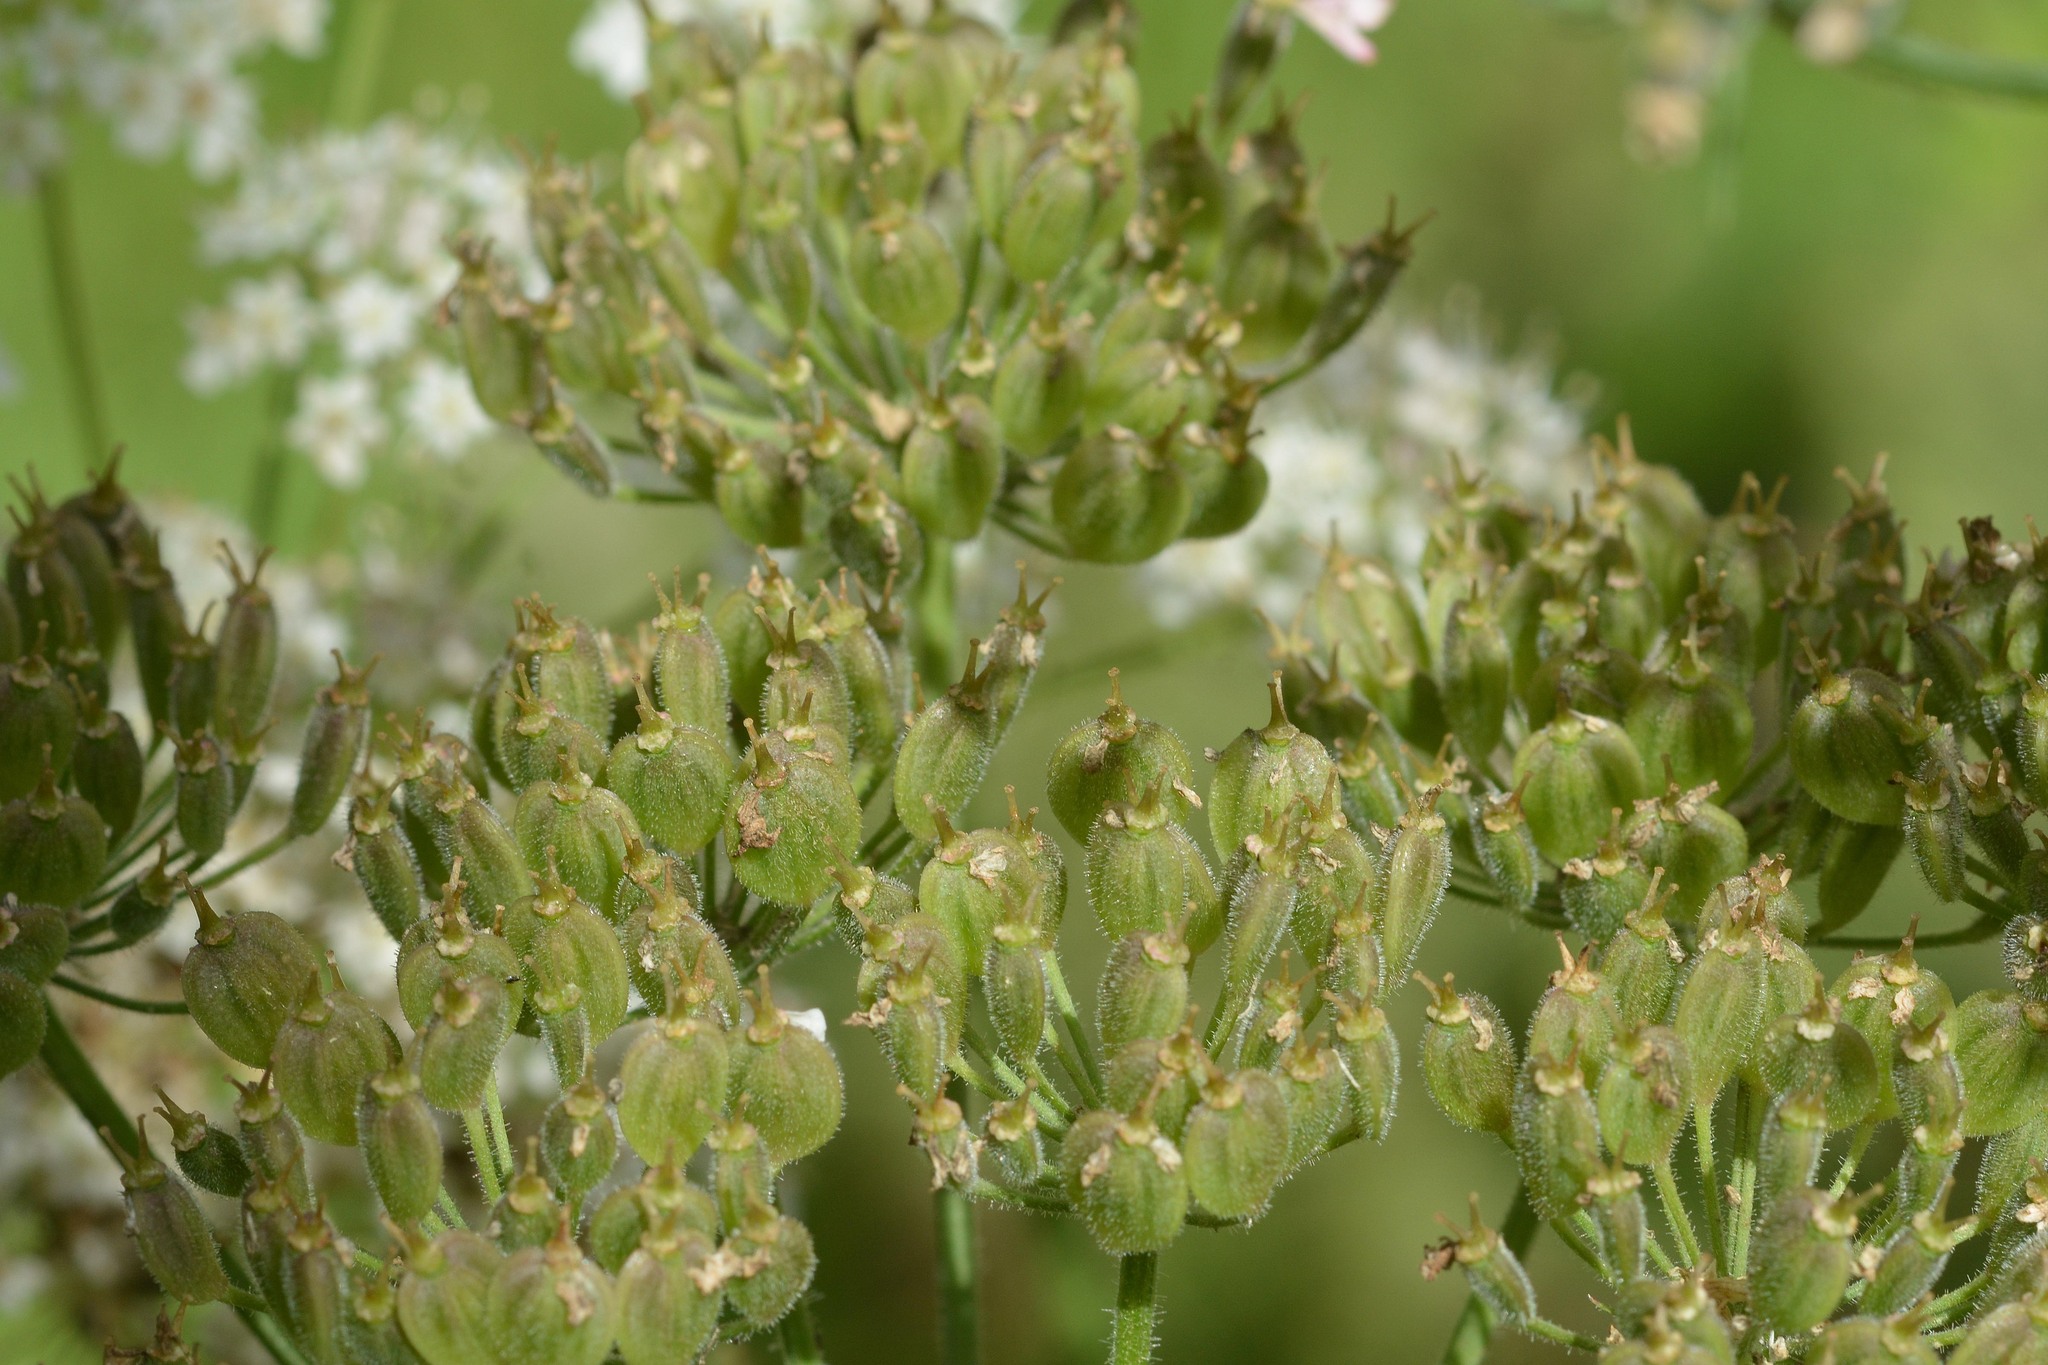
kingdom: Plantae
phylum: Tracheophyta
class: Magnoliopsida
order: Apiales
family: Apiaceae
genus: Heracleum
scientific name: Heracleum sphondylium
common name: Hogweed
